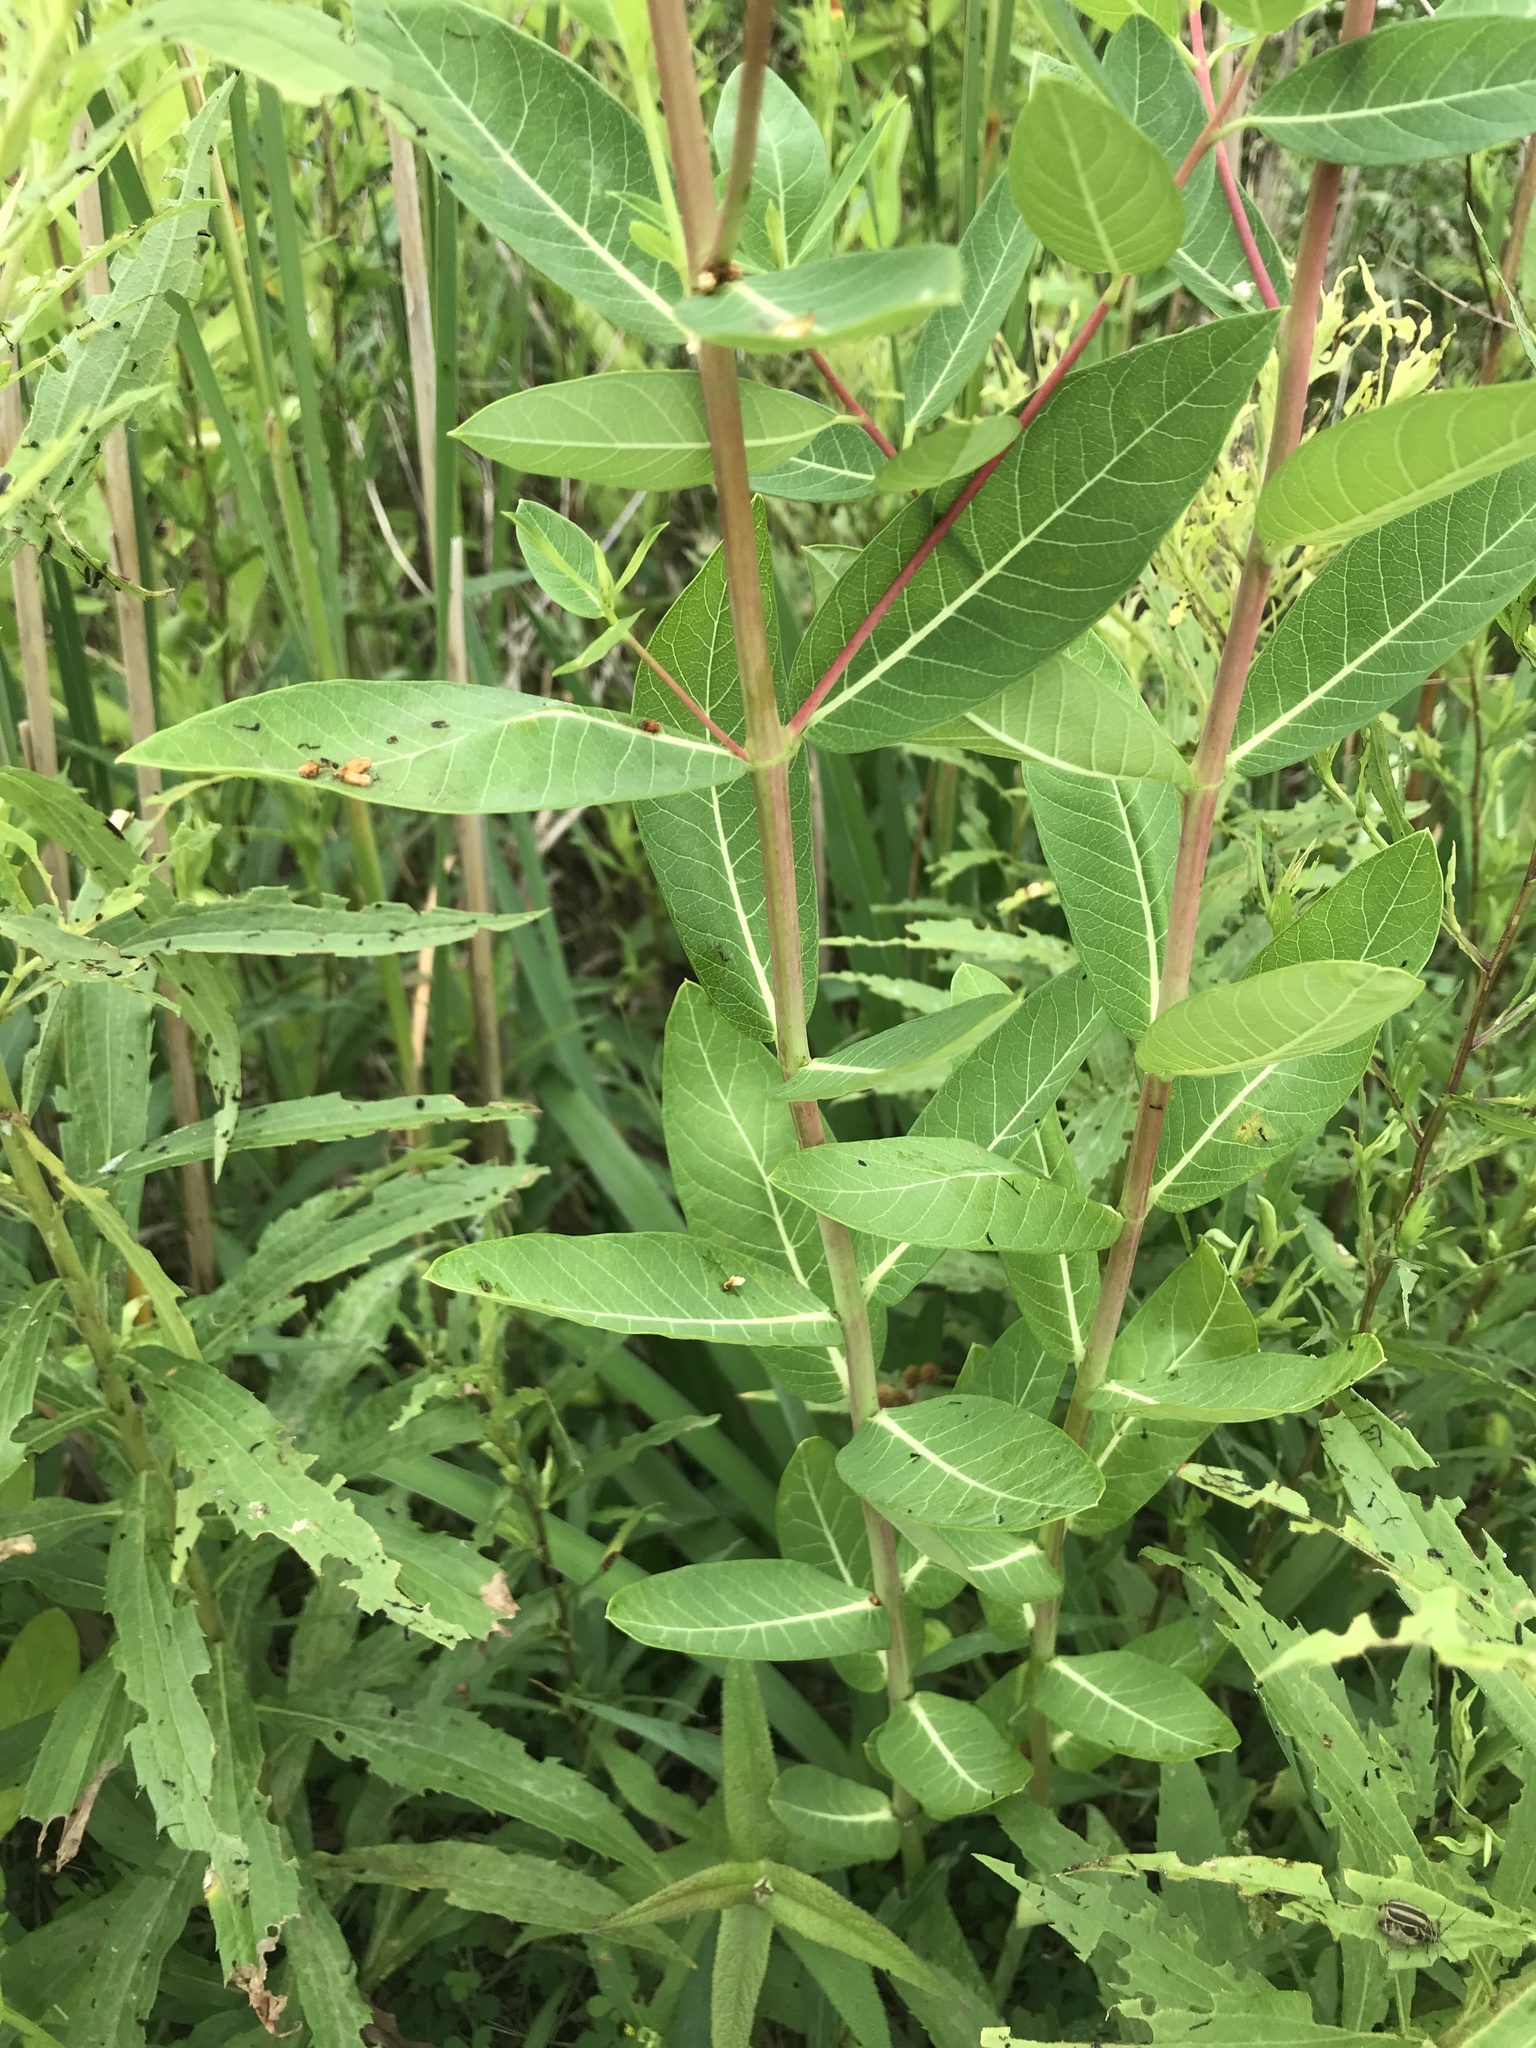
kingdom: Plantae
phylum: Tracheophyta
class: Magnoliopsida
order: Gentianales
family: Apocynaceae
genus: Apocynum
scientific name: Apocynum cannabinum
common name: Hemp dogbane
